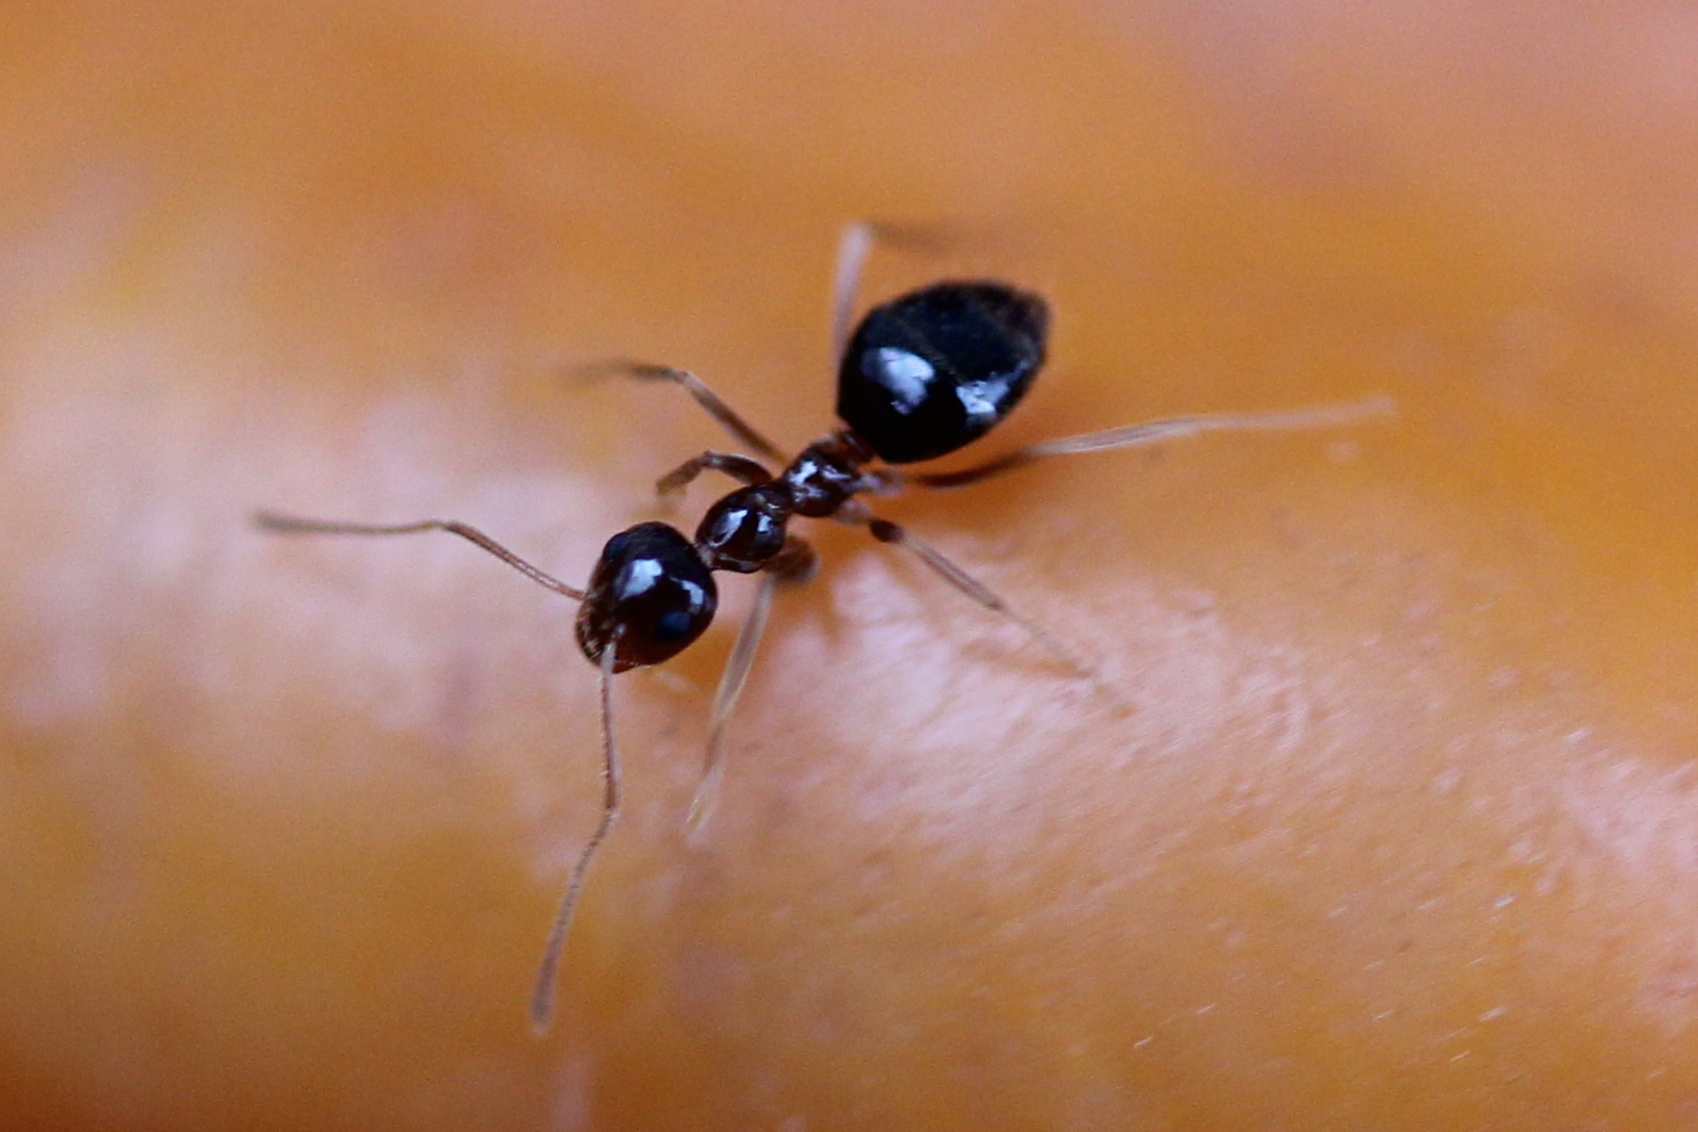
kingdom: Animalia
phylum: Arthropoda
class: Insecta
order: Hymenoptera
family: Formicidae
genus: Prenolepis
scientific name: Prenolepis imparis
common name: Small honey ant
